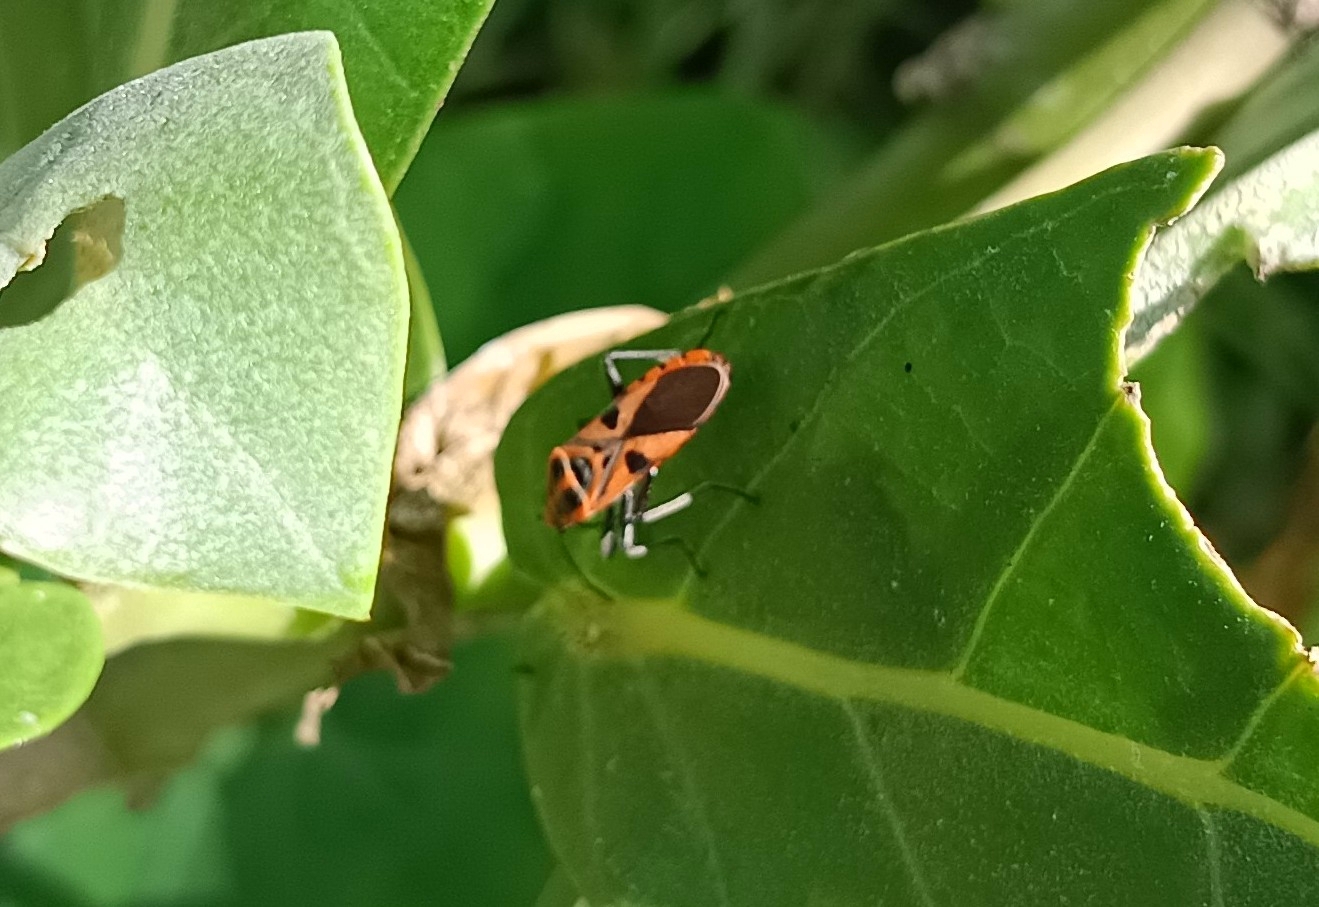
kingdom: Animalia
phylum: Arthropoda
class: Insecta
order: Hemiptera
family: Lygaeidae
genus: Spilostethus
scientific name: Spilostethus hospes
